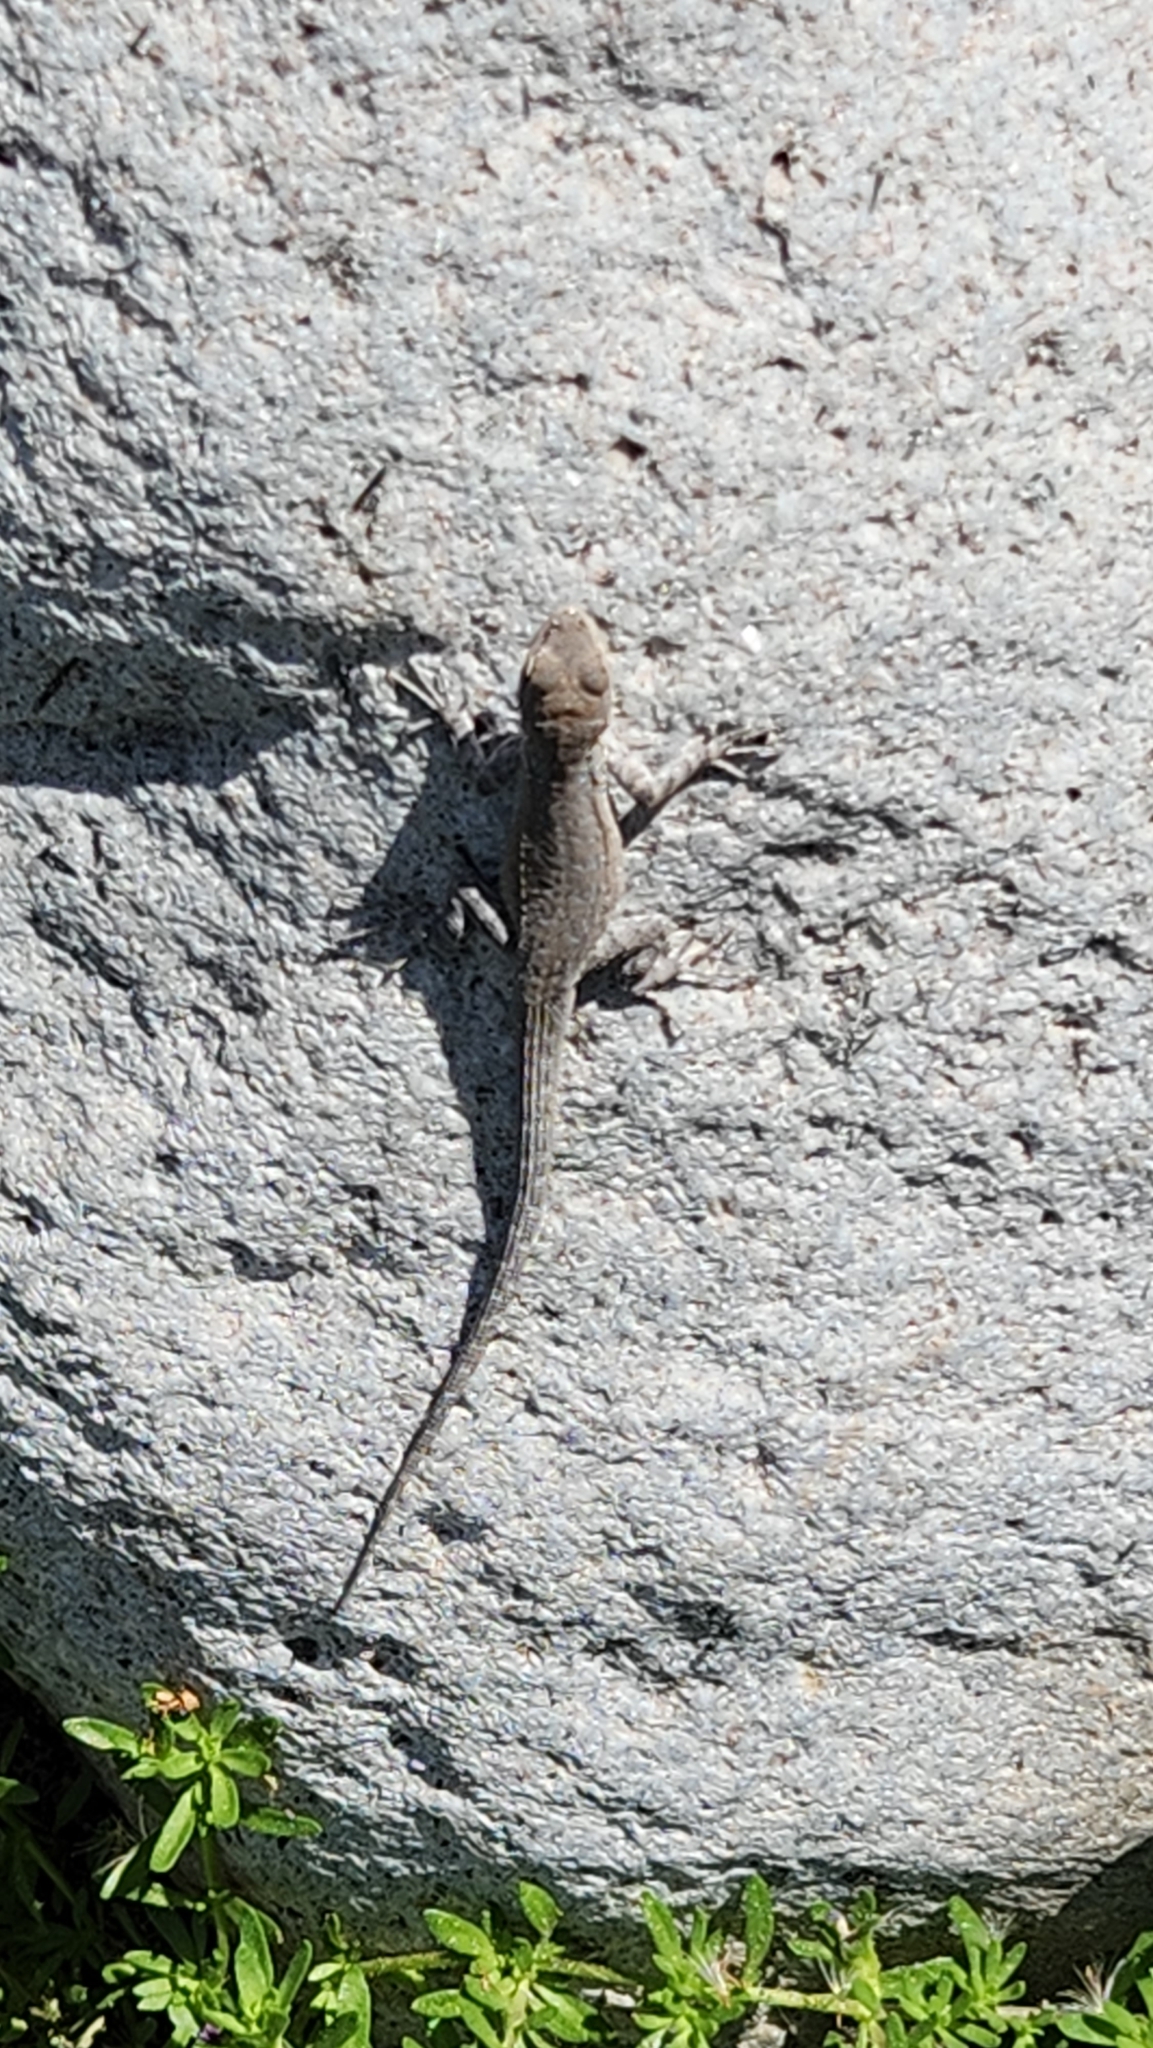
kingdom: Animalia
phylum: Chordata
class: Squamata
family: Phrynosomatidae
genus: Urosaurus
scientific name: Urosaurus nigricauda
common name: Baja california brush lizard
